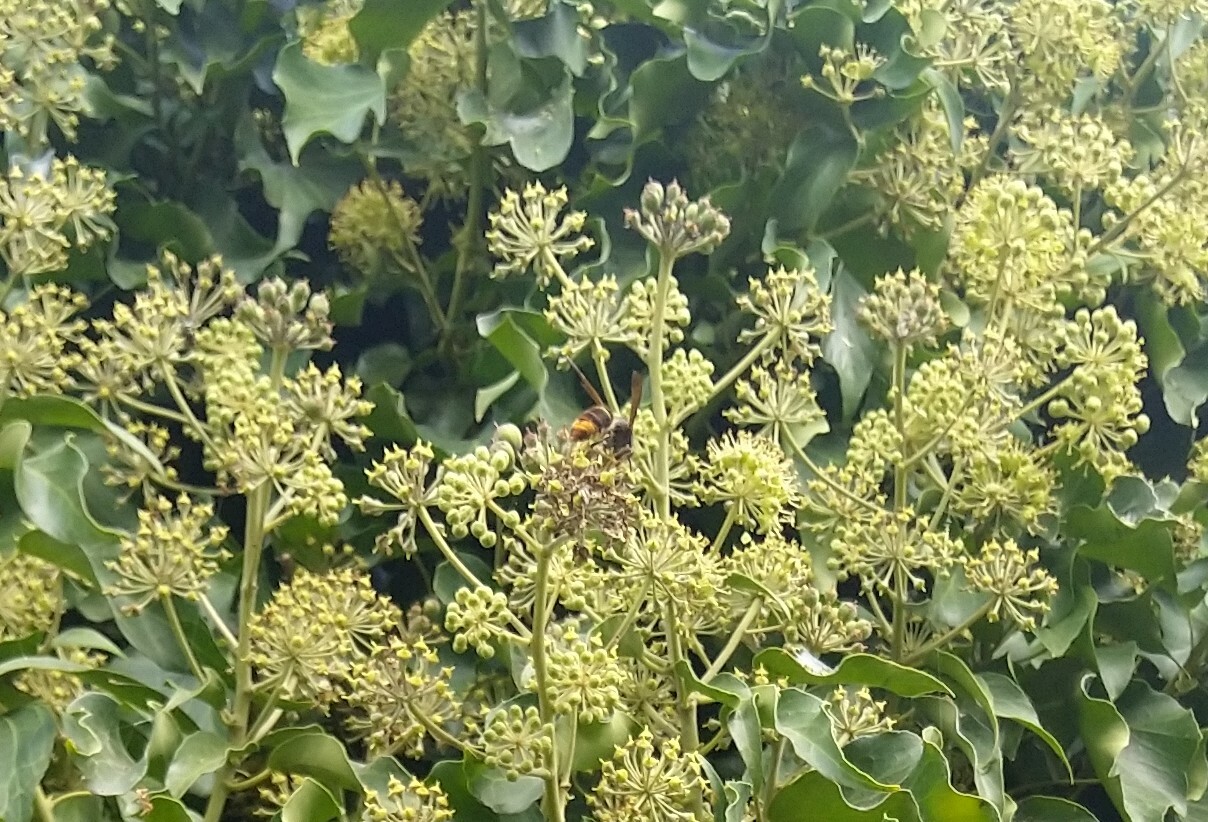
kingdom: Animalia
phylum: Arthropoda
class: Insecta
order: Hymenoptera
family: Vespidae
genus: Vespa
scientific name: Vespa velutina
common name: Asian hornet
